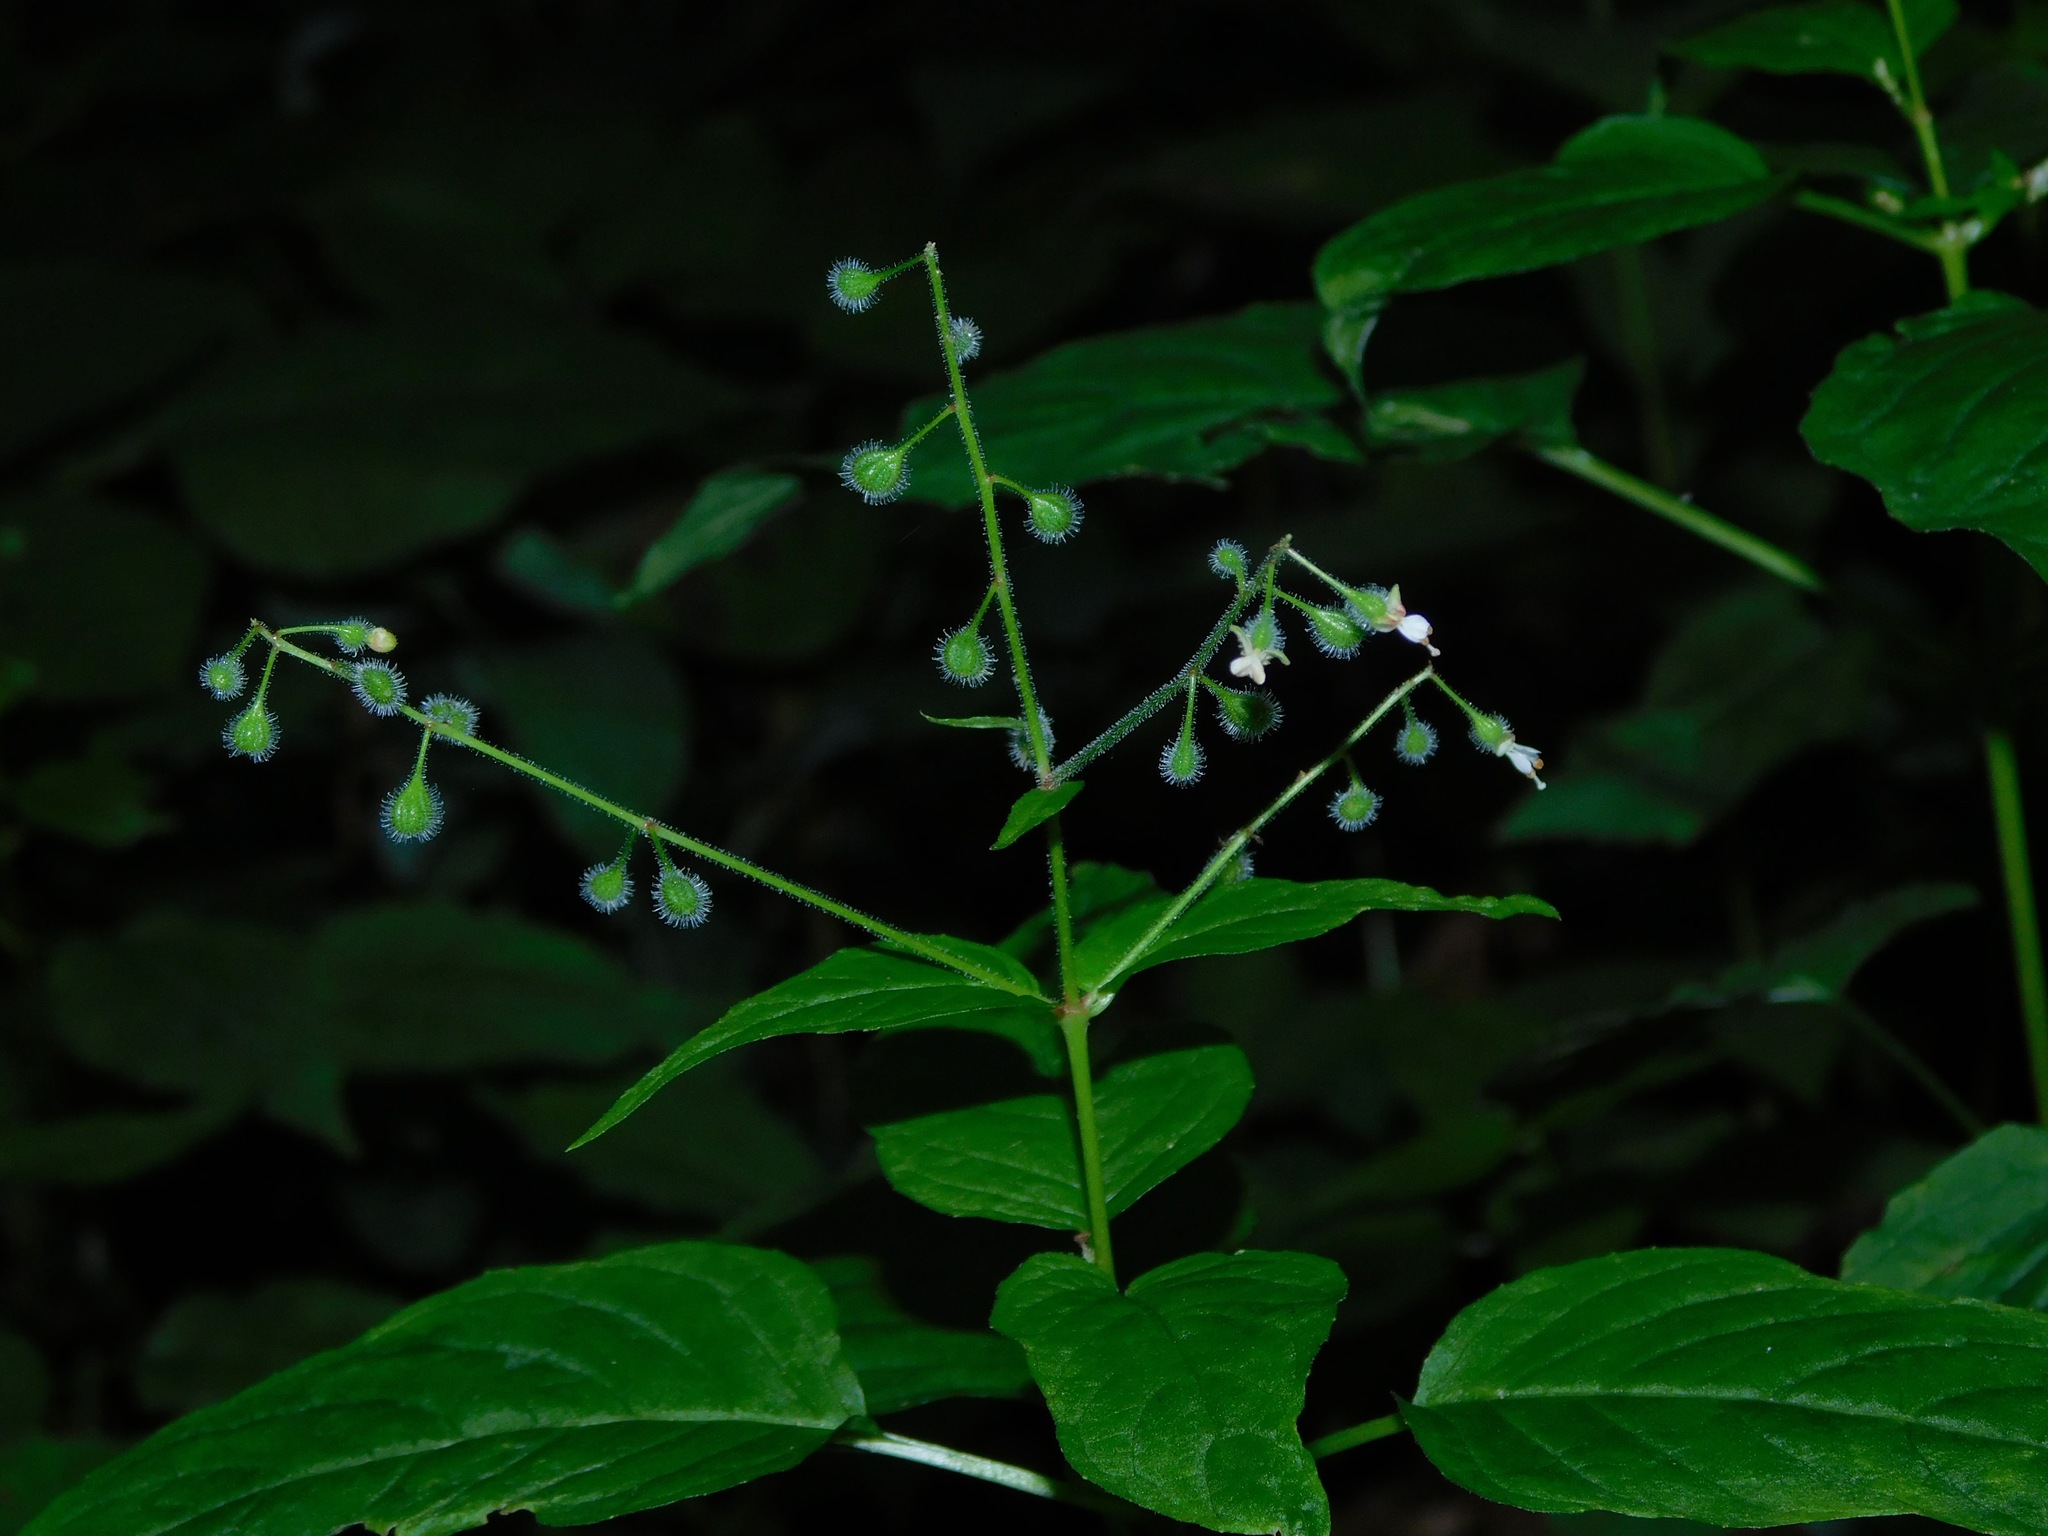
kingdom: Plantae
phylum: Tracheophyta
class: Magnoliopsida
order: Myrtales
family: Onagraceae
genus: Circaea
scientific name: Circaea canadensis
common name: Broad-leaved enchanter's nightshade
